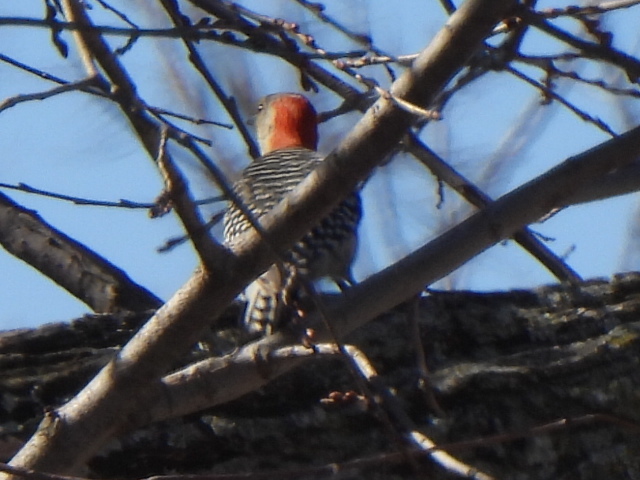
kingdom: Animalia
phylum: Chordata
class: Aves
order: Piciformes
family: Picidae
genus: Melanerpes
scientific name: Melanerpes carolinus
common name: Red-bellied woodpecker
